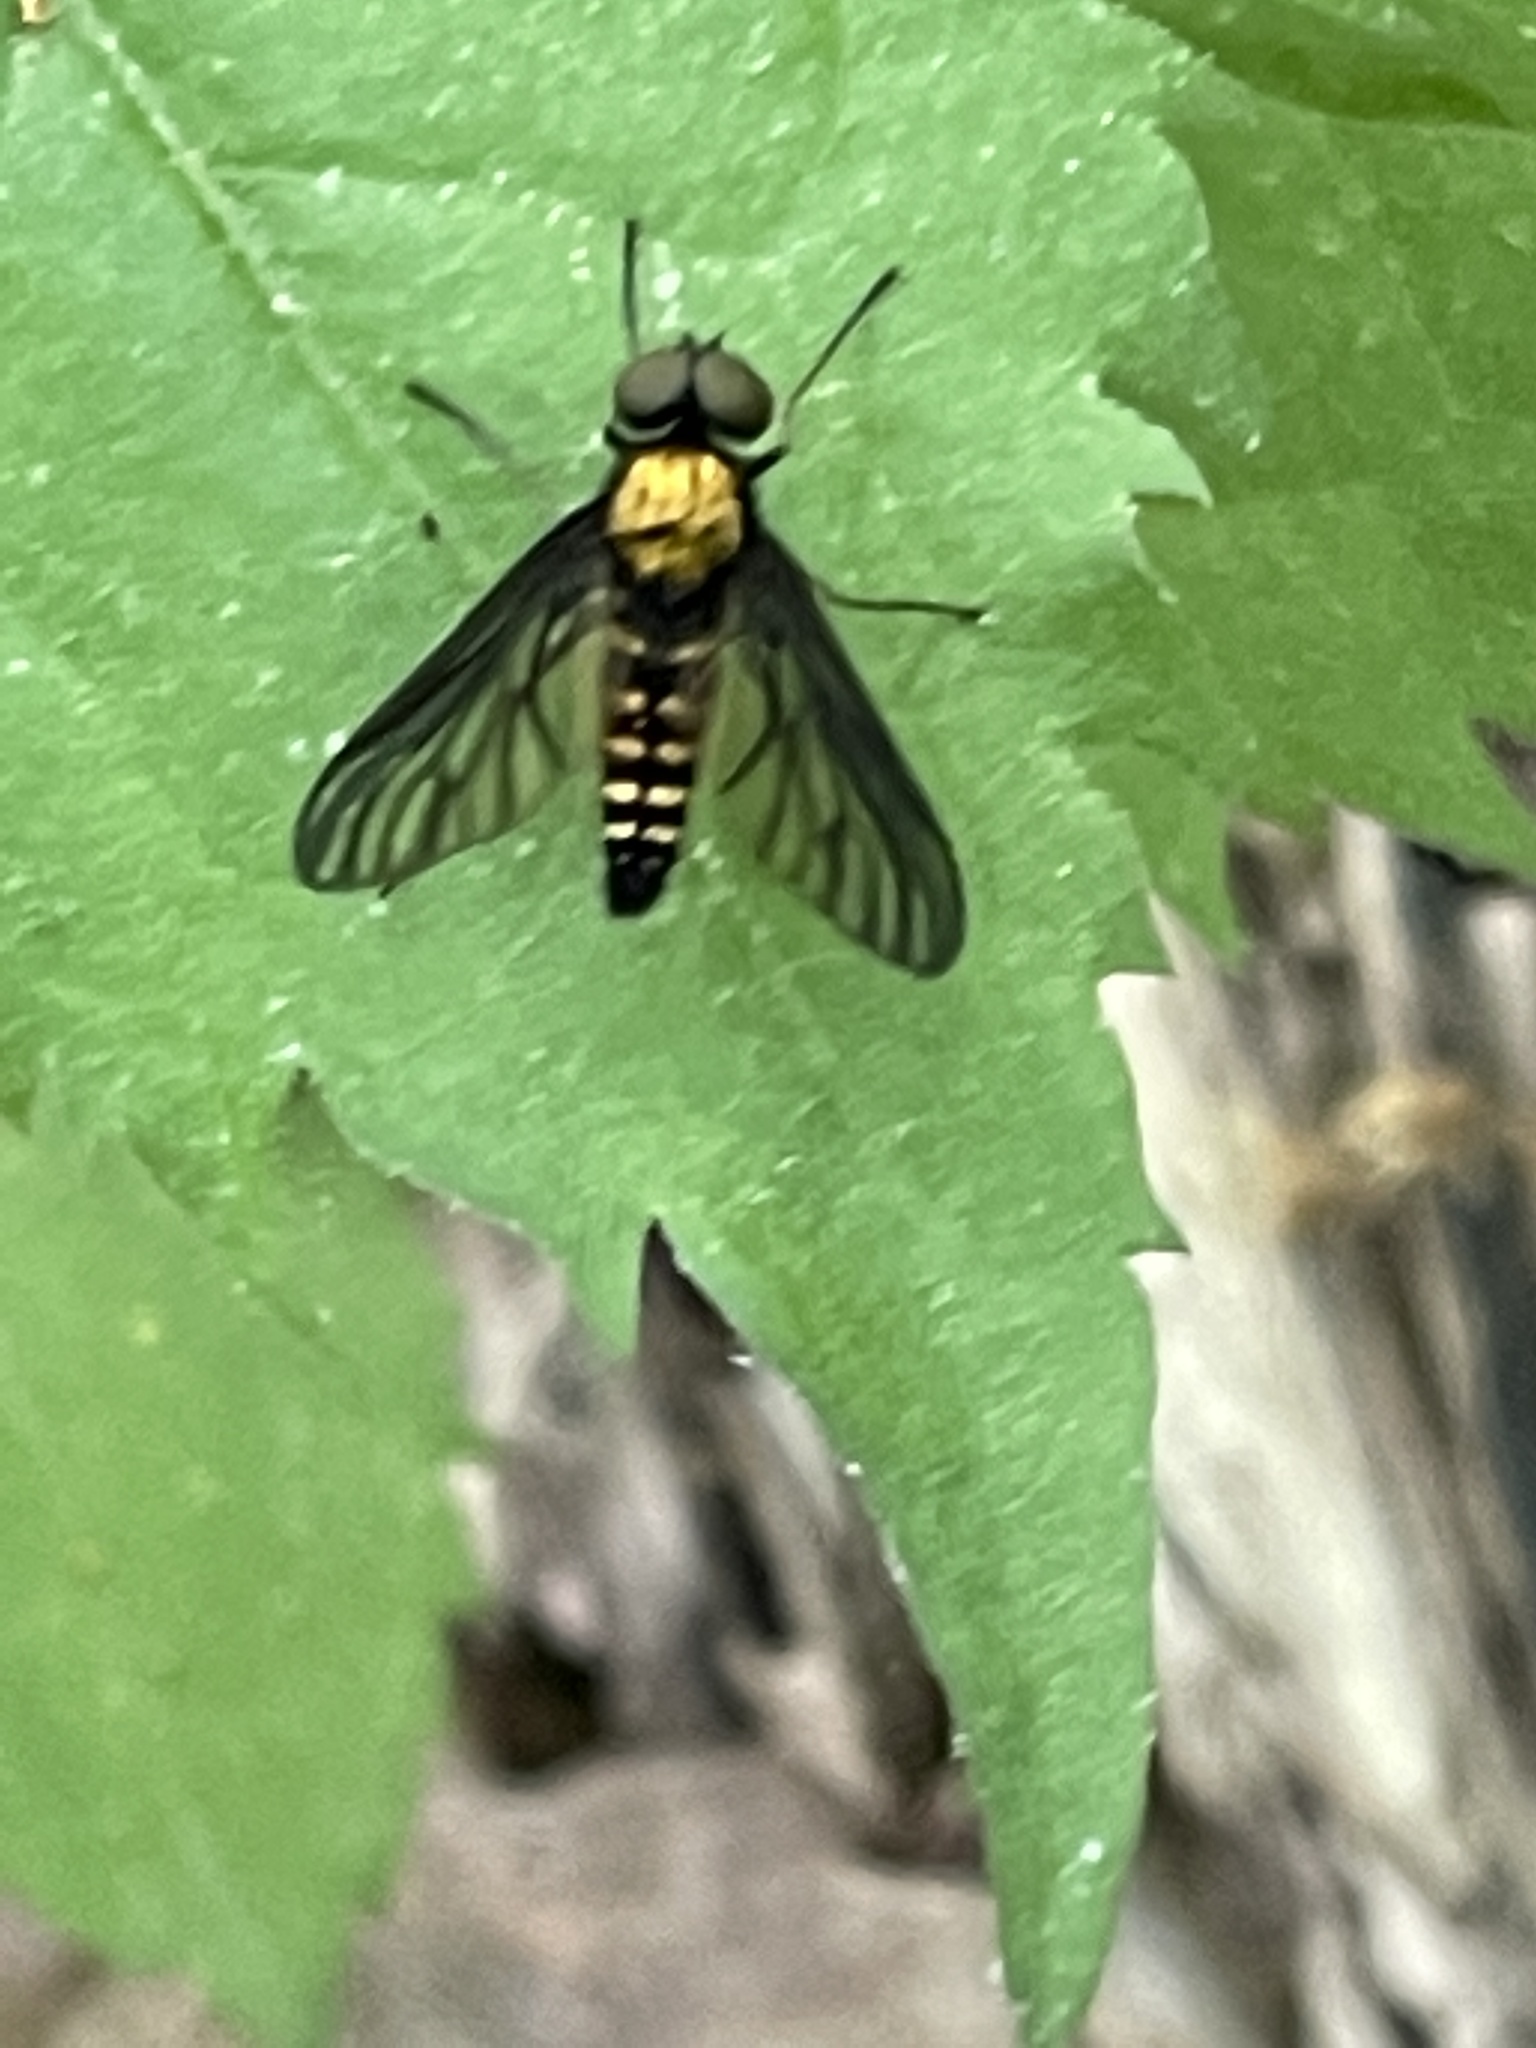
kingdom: Animalia
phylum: Arthropoda
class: Insecta
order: Diptera
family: Rhagionidae
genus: Chrysopilus
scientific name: Chrysopilus thoracicus
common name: Golden-backed snipe fly
